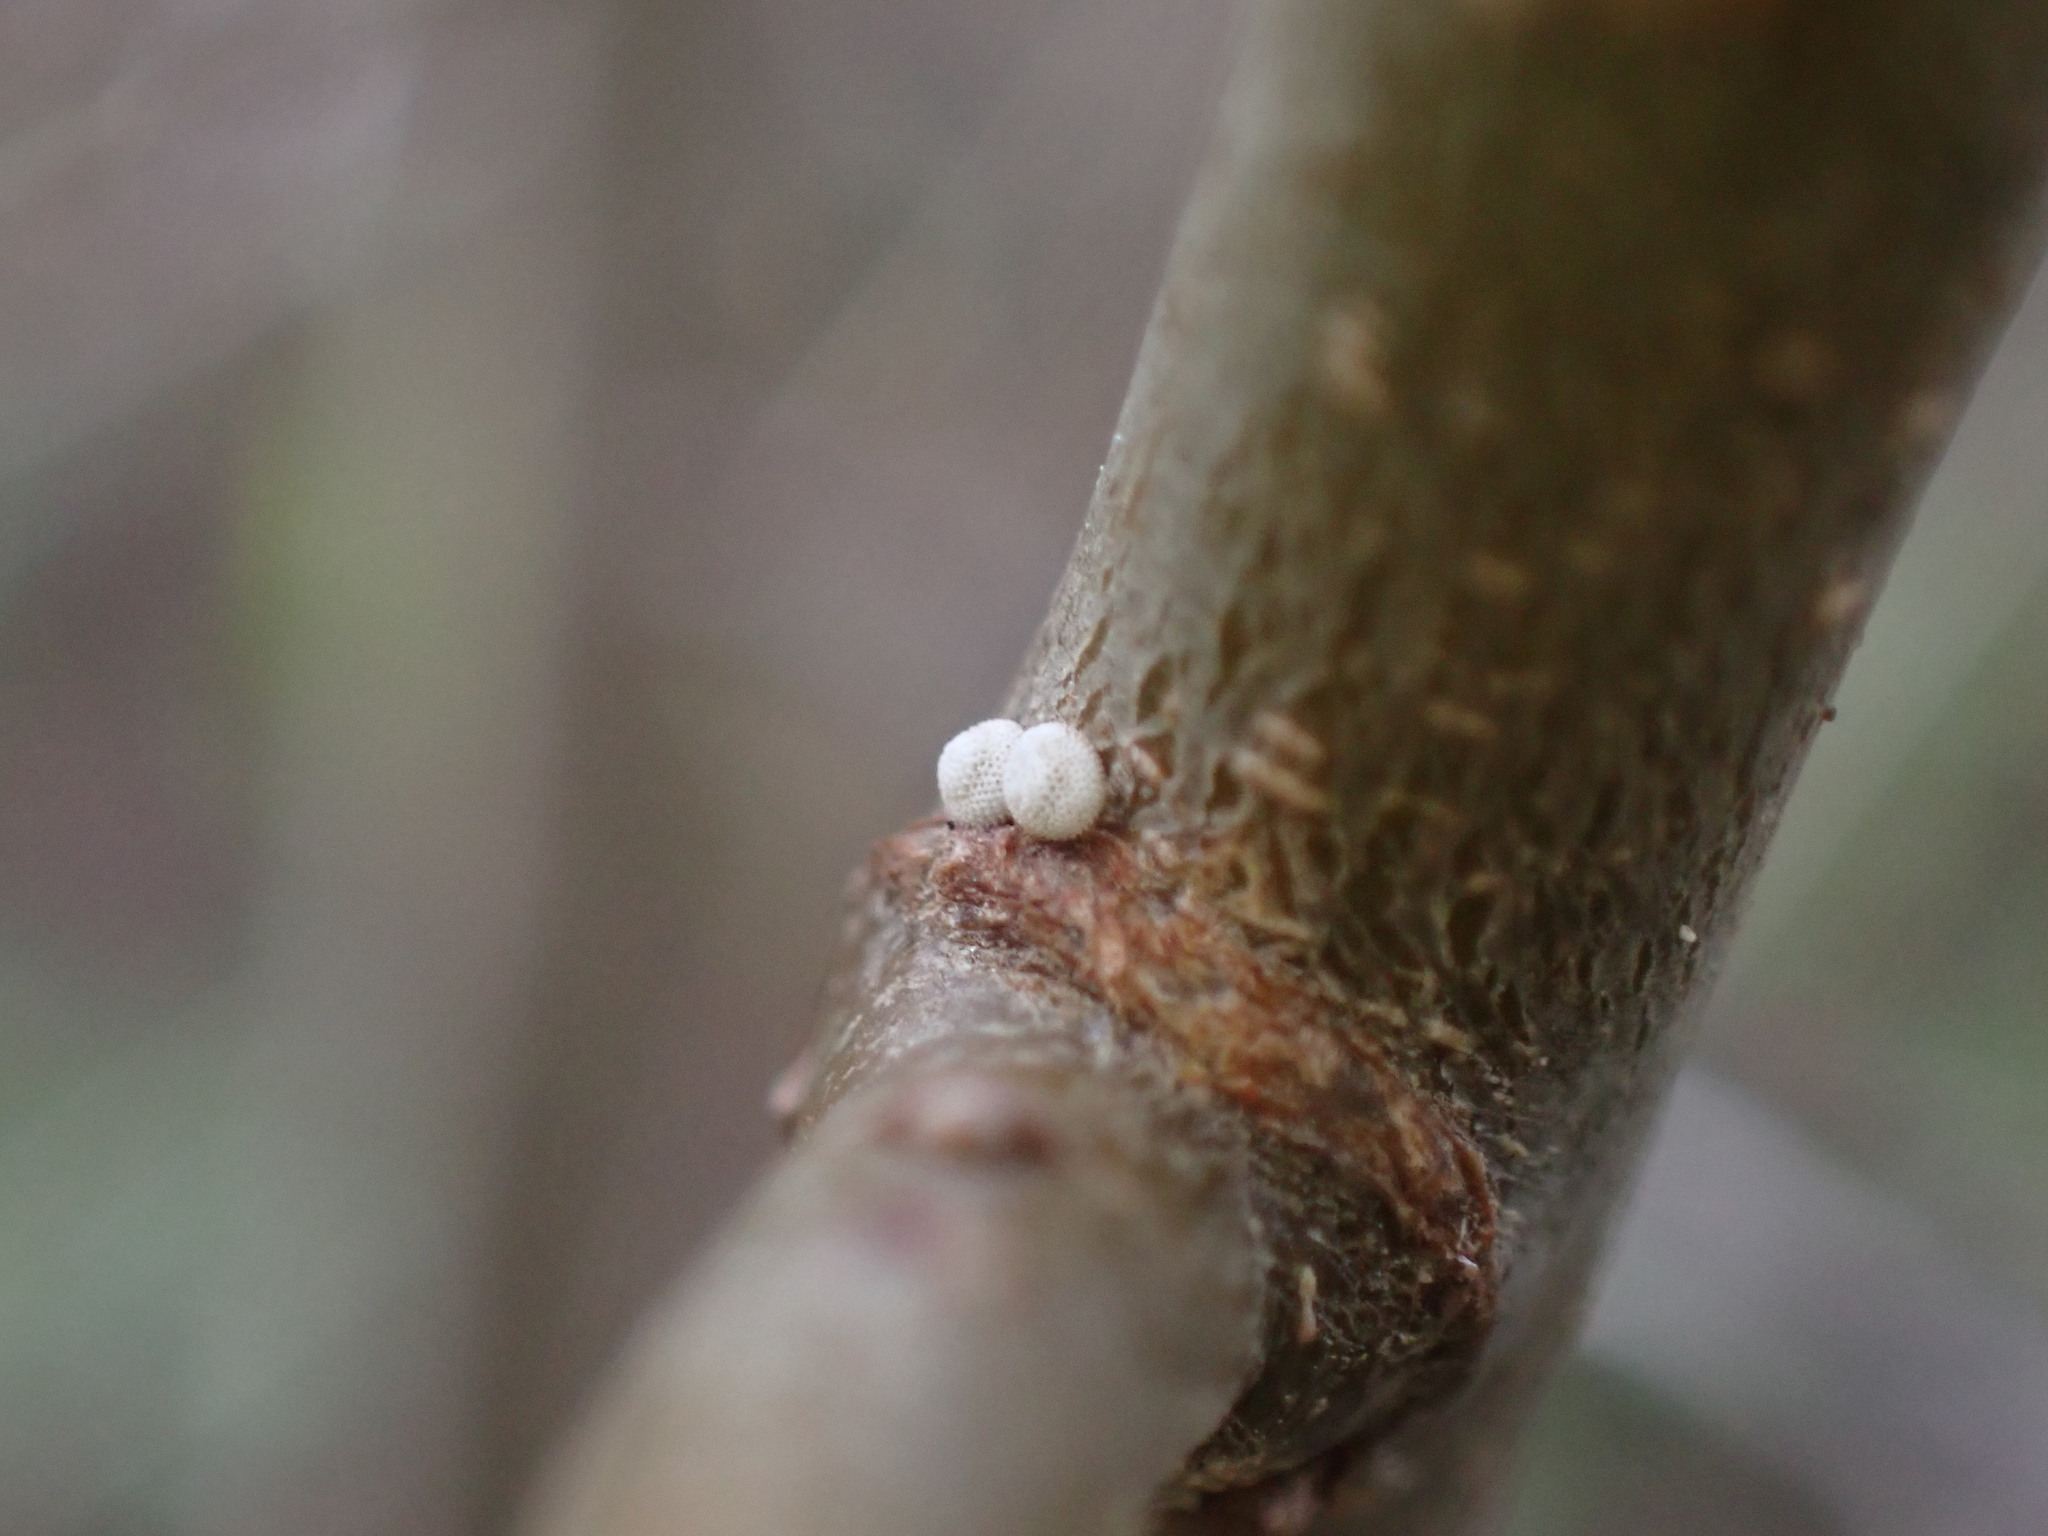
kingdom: Animalia
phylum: Arthropoda
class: Insecta
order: Lepidoptera
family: Lycaenidae
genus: Thecla
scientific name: Thecla betulae
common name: Brown hairstreak
